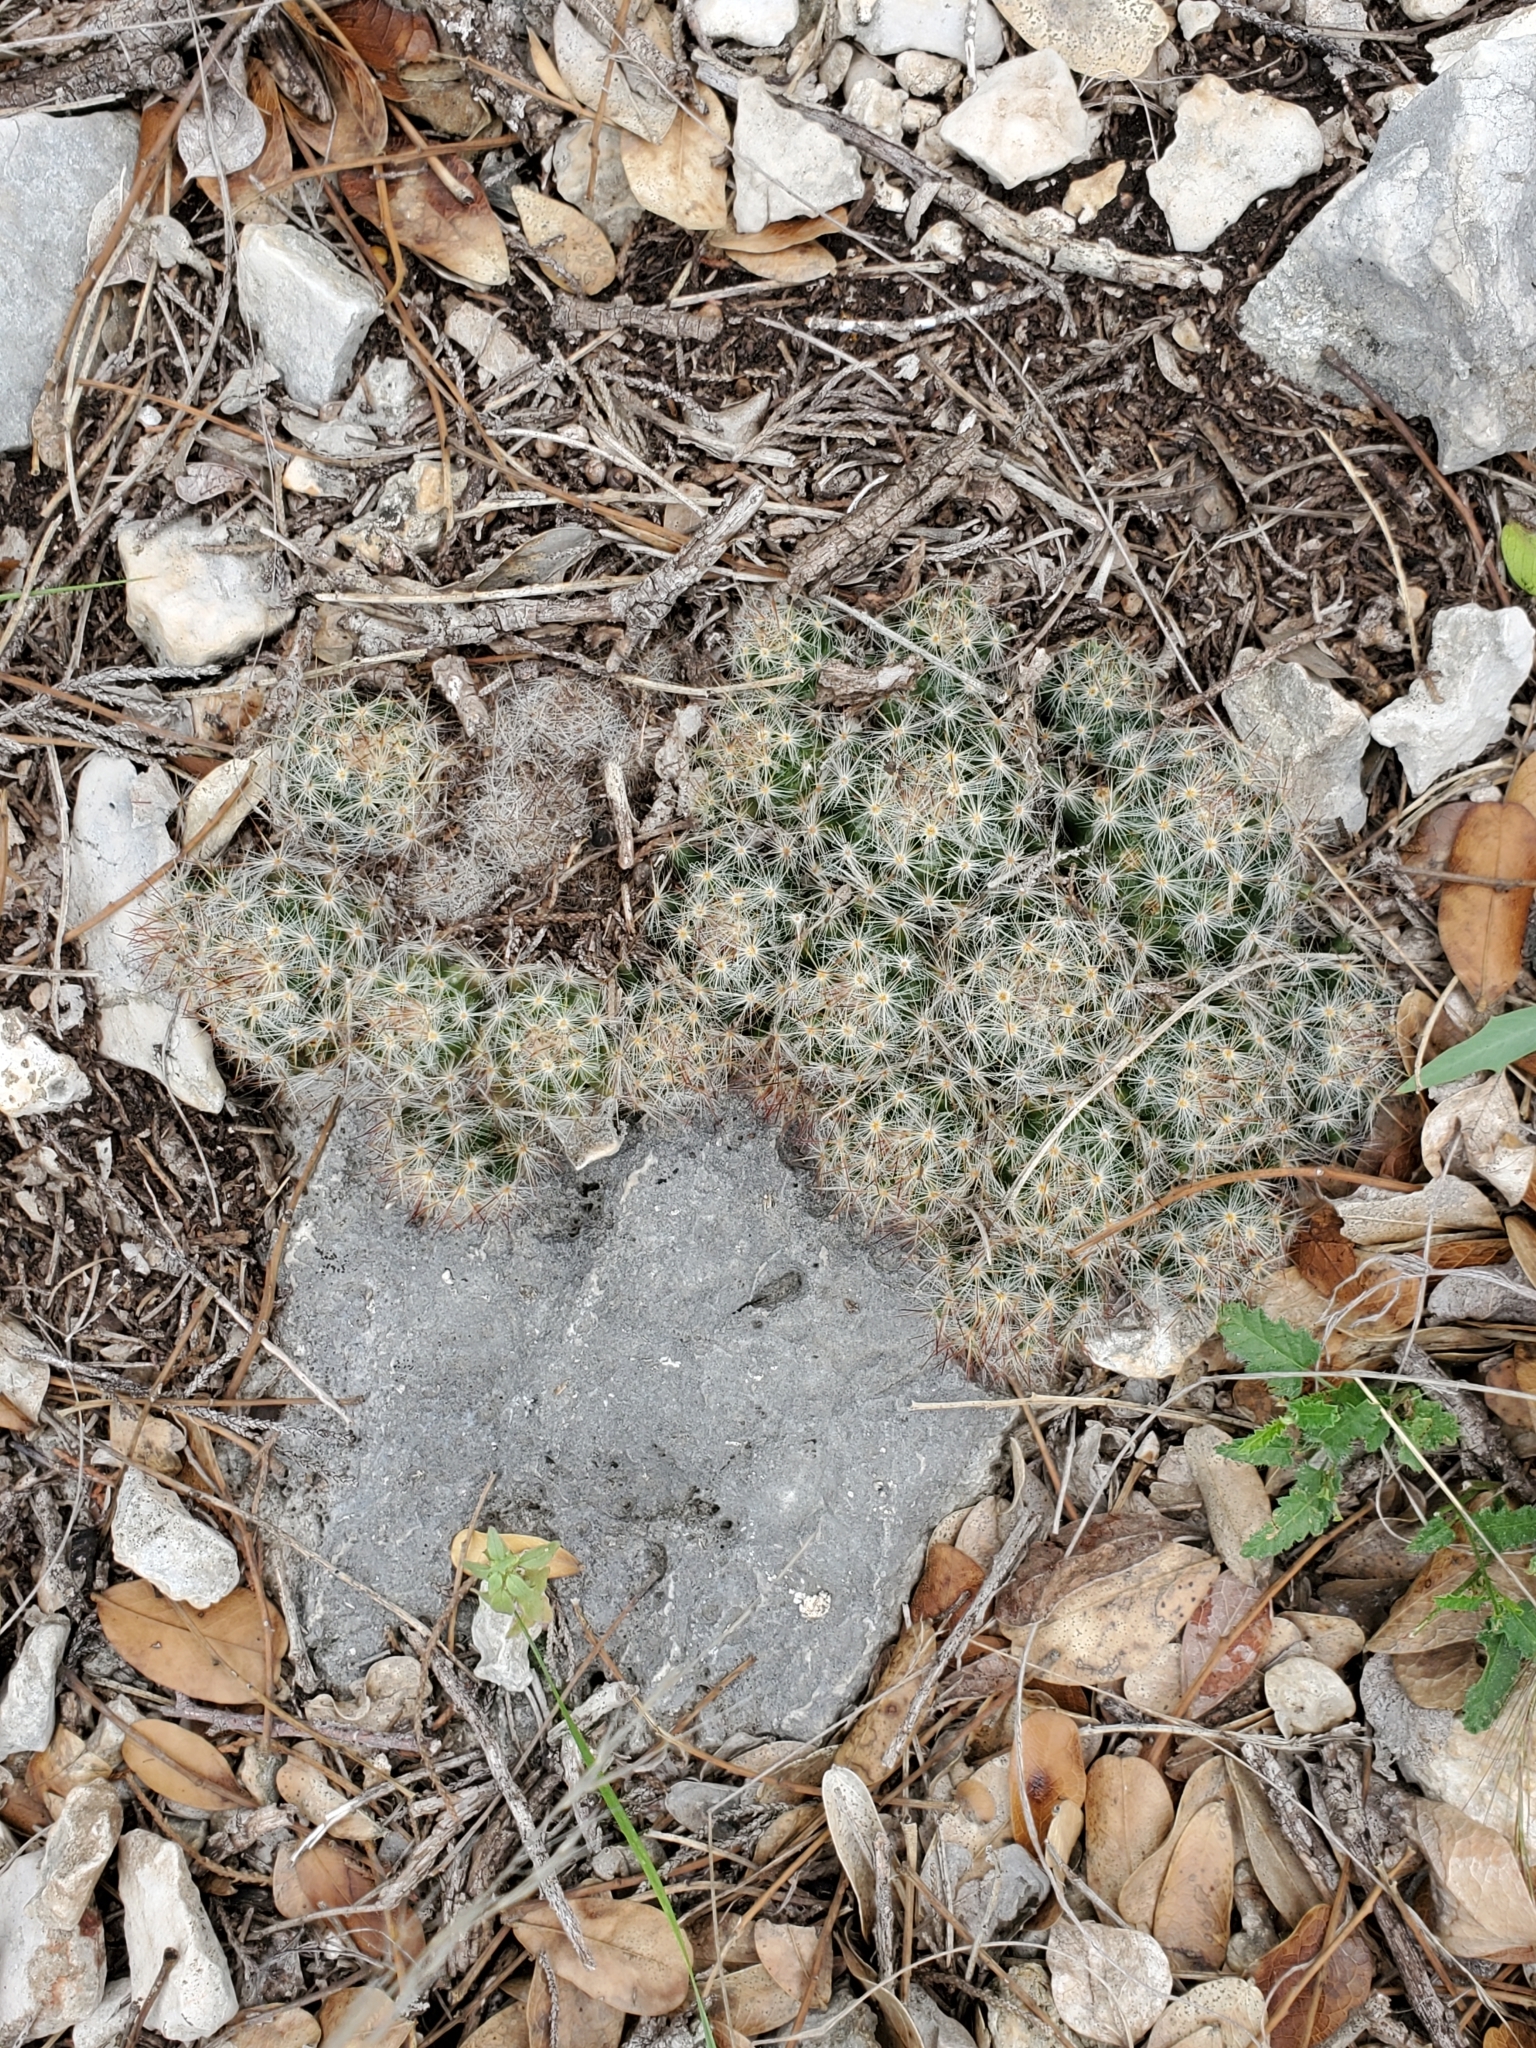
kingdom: Plantae
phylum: Tracheophyta
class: Magnoliopsida
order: Caryophyllales
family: Cactaceae
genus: Mammillaria
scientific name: Mammillaria prolifera
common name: Texas nipple cactus
